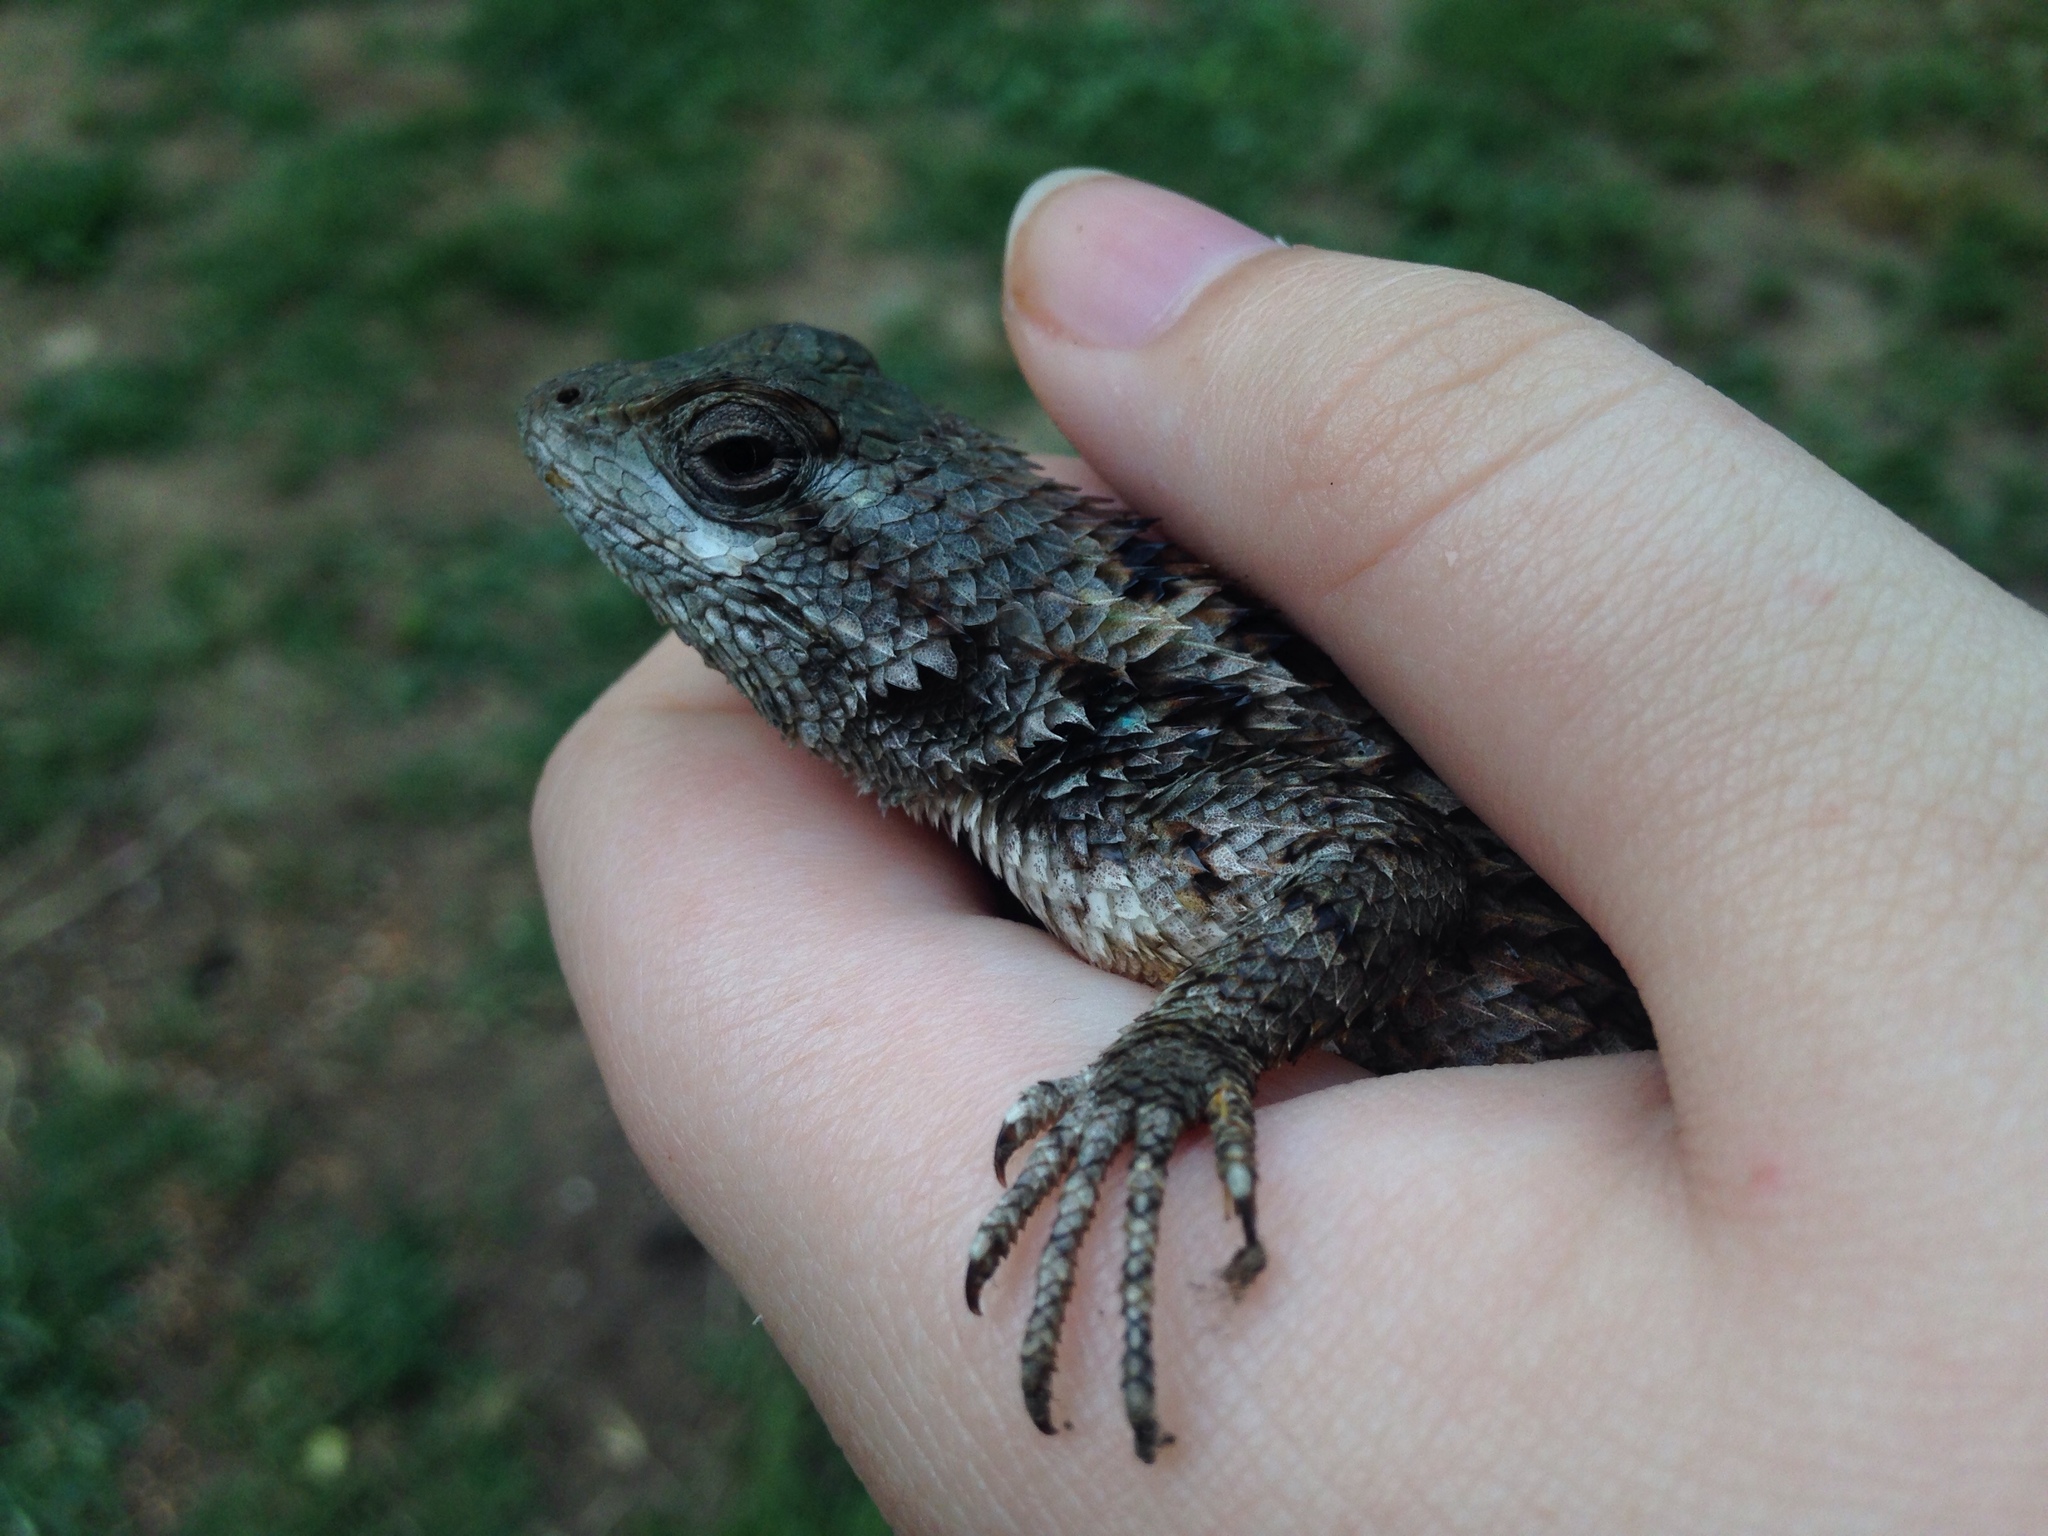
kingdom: Animalia
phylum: Chordata
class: Squamata
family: Phrynosomatidae
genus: Sceloporus
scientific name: Sceloporus olivaceus
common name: Texas spiny lizard
